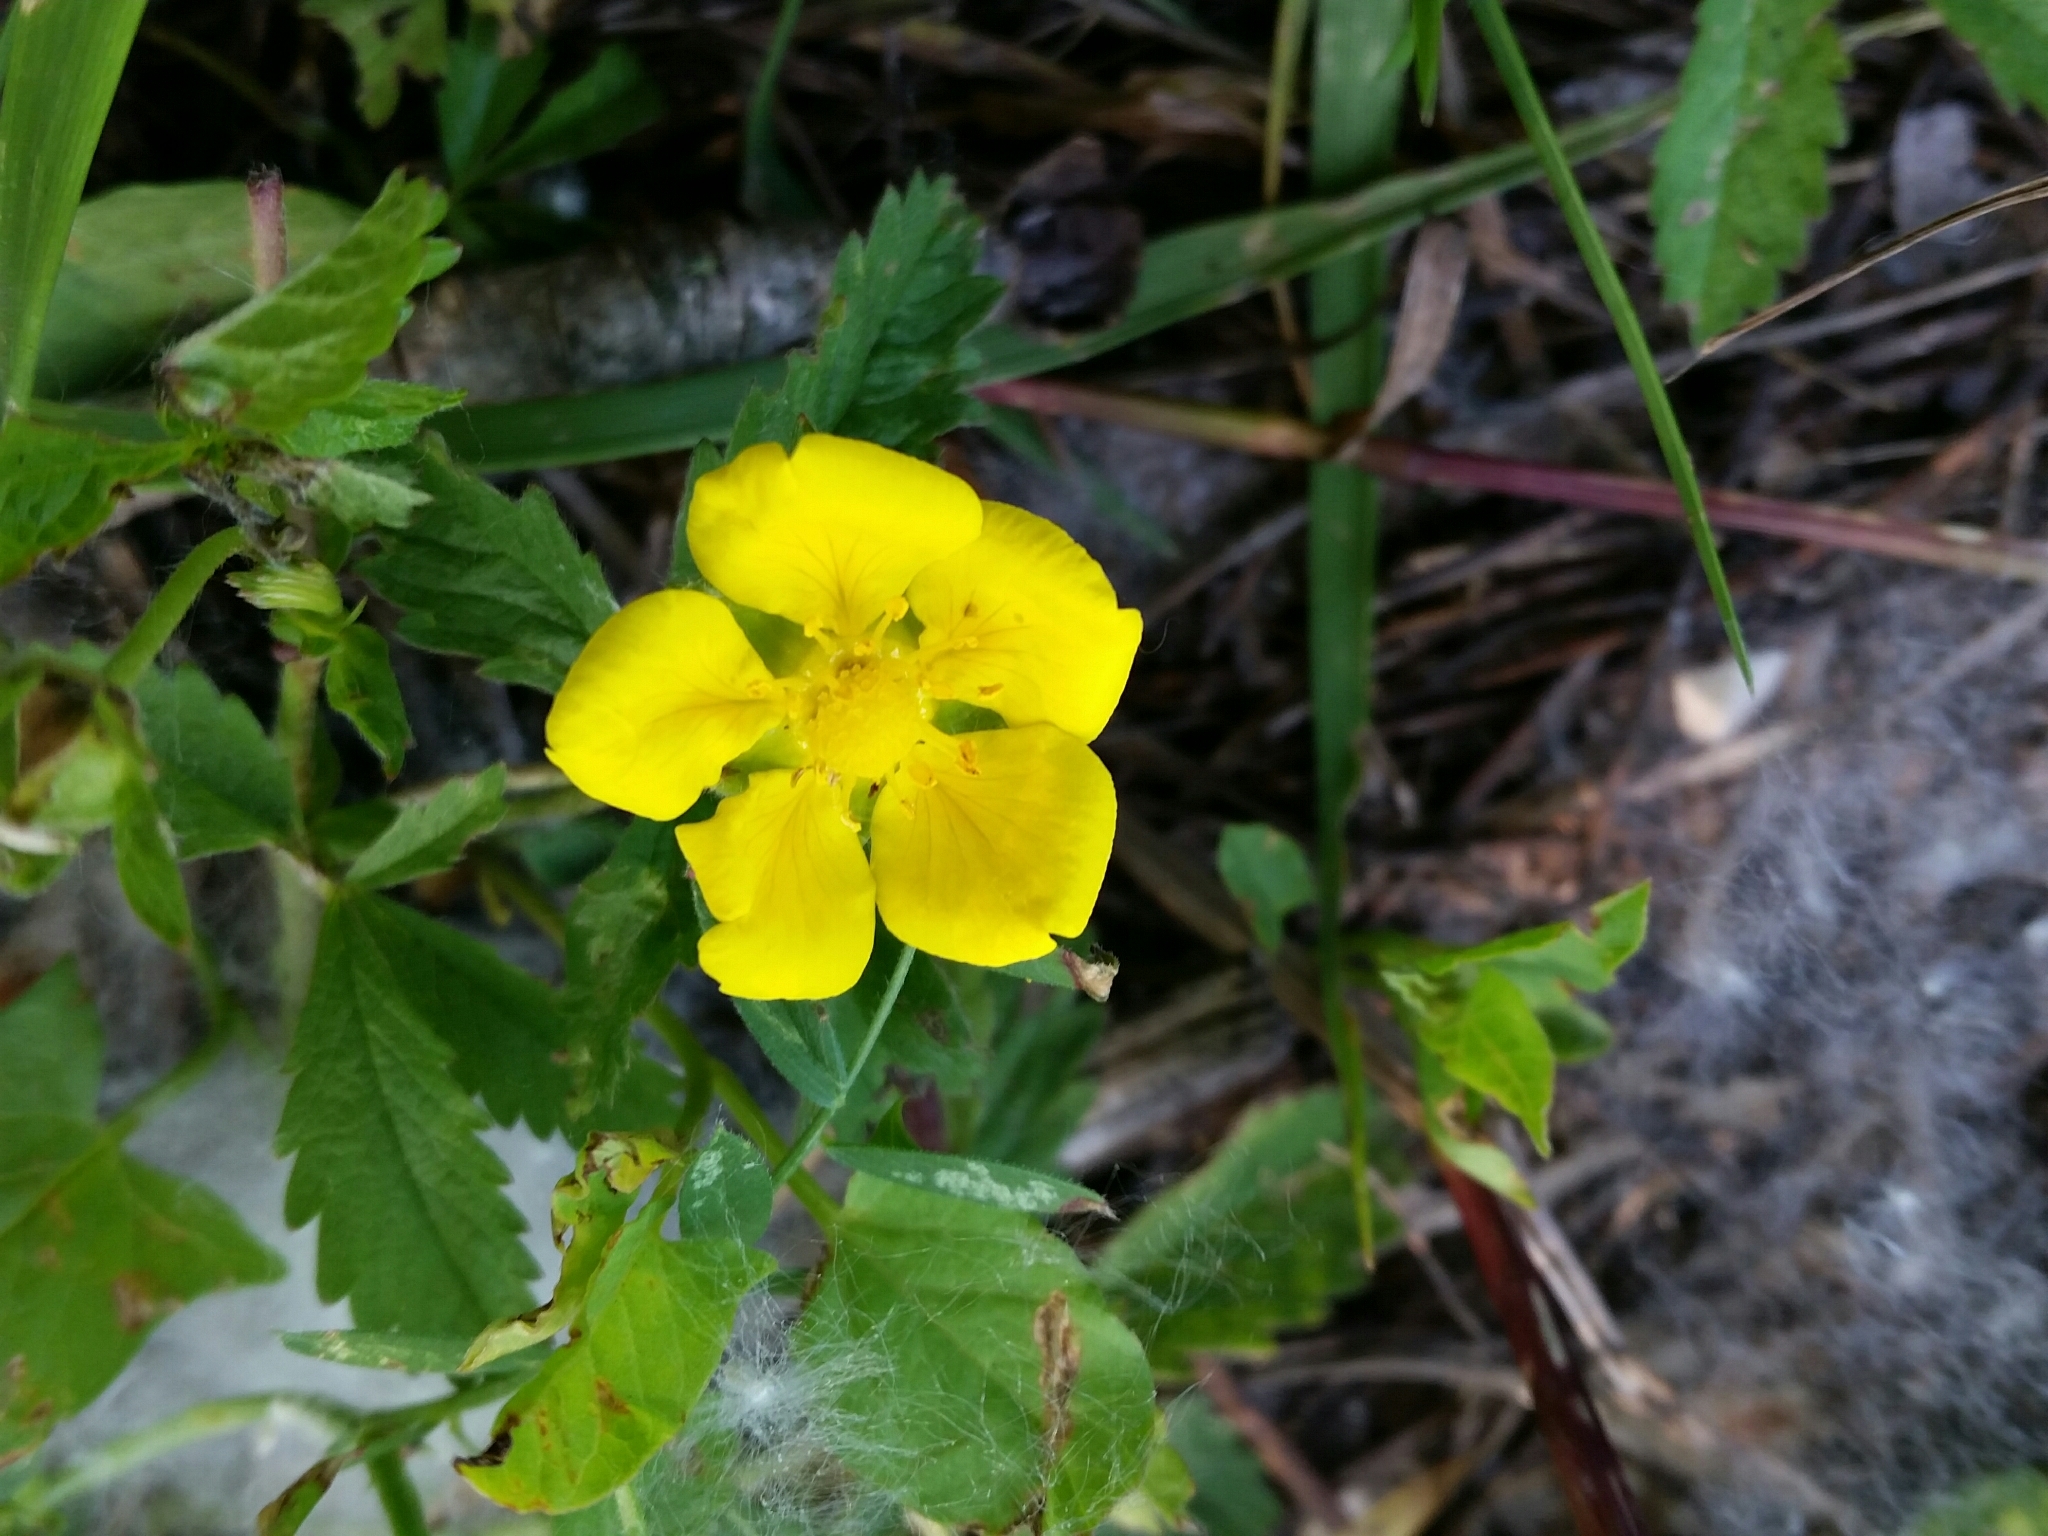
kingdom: Plantae
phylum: Tracheophyta
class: Magnoliopsida
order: Rosales
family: Rosaceae
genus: Potentilla
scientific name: Potentilla reptans
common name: Creeping cinquefoil
